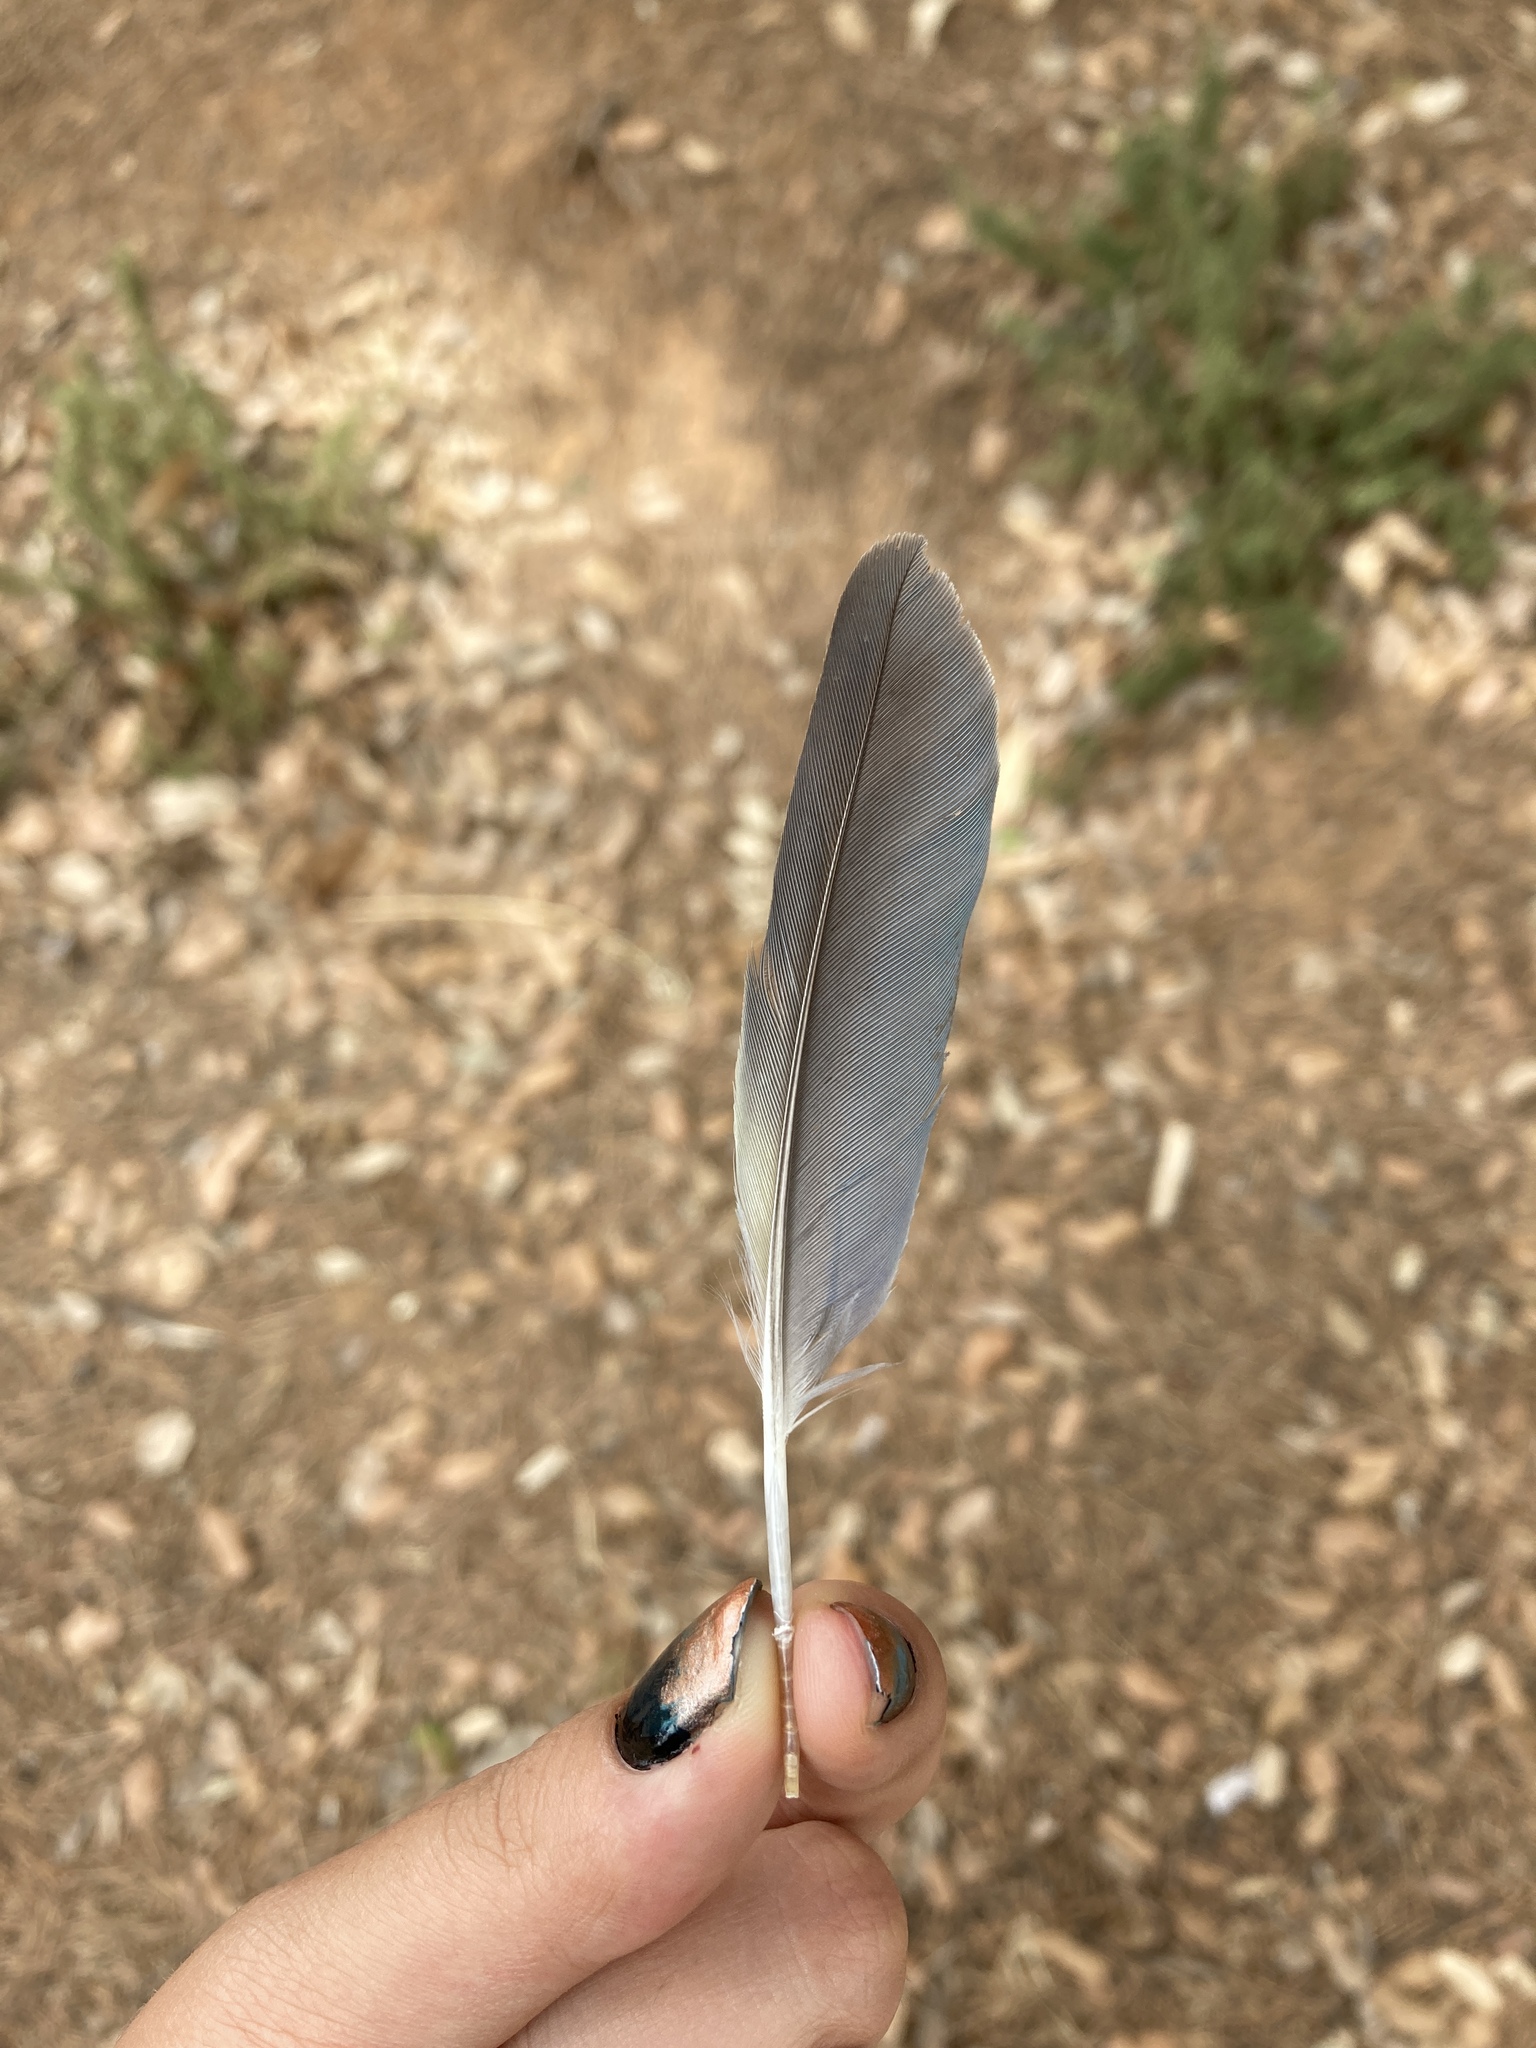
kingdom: Animalia
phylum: Chordata
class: Aves
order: Psittaciformes
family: Psittacidae
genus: Myiopsitta
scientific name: Myiopsitta monachus
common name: Monk parakeet
